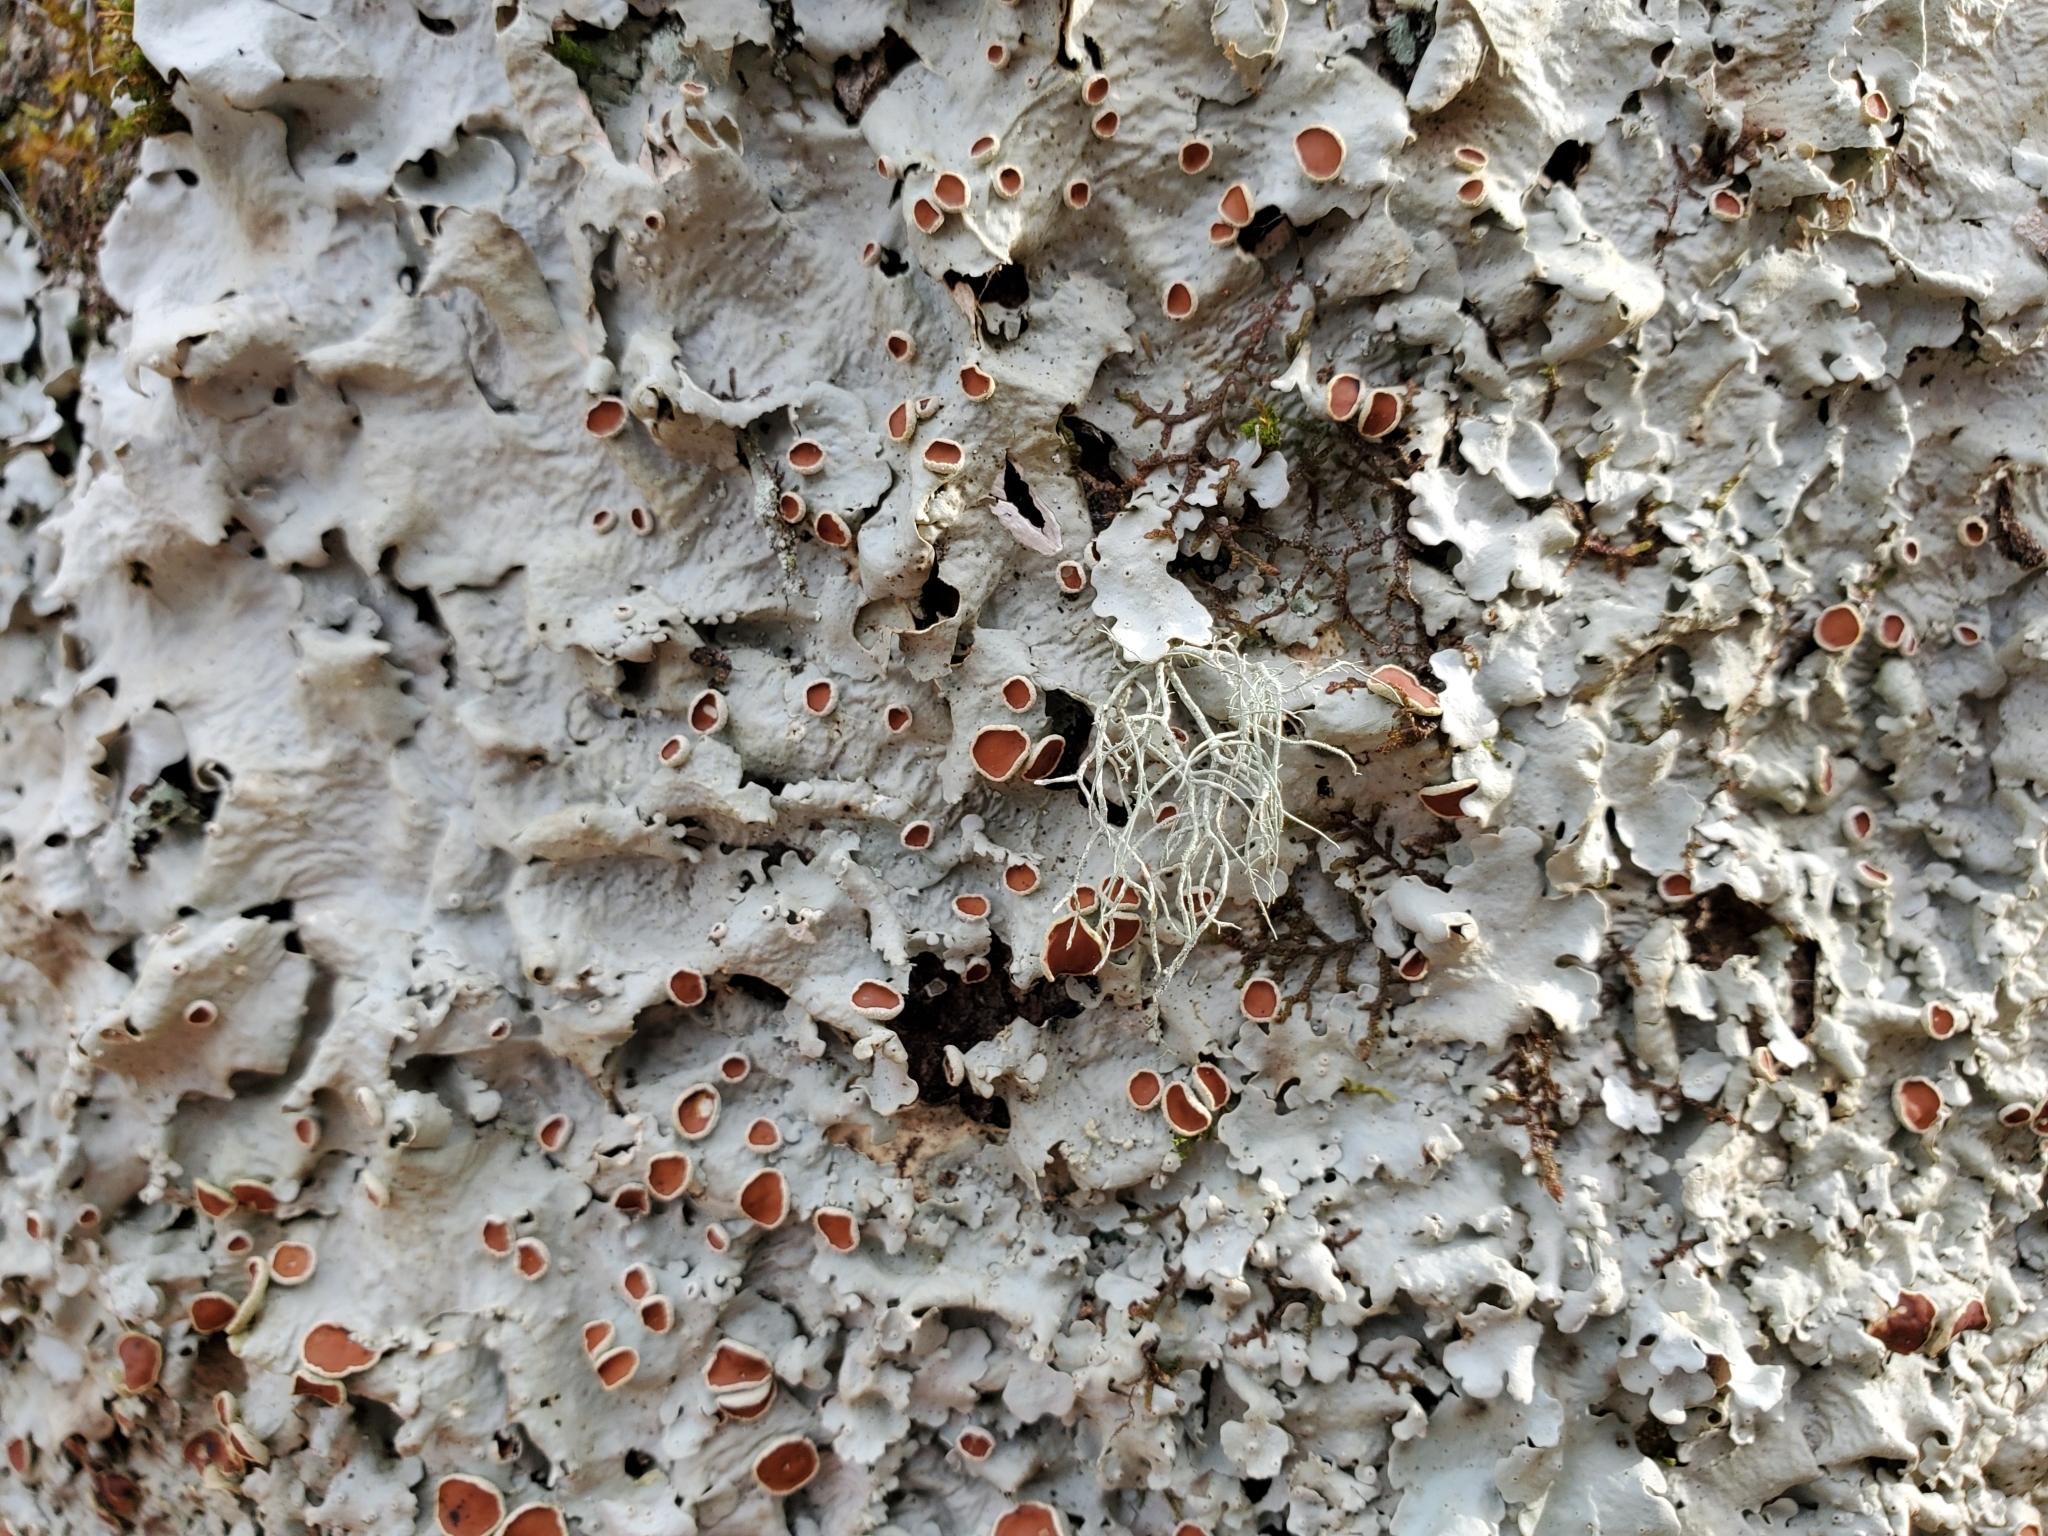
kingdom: Fungi
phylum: Ascomycota
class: Lecanoromycetes
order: Peltigerales
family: Lobariaceae
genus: Ricasolia
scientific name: Ricasolia quercizans
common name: Smooth lungwort
